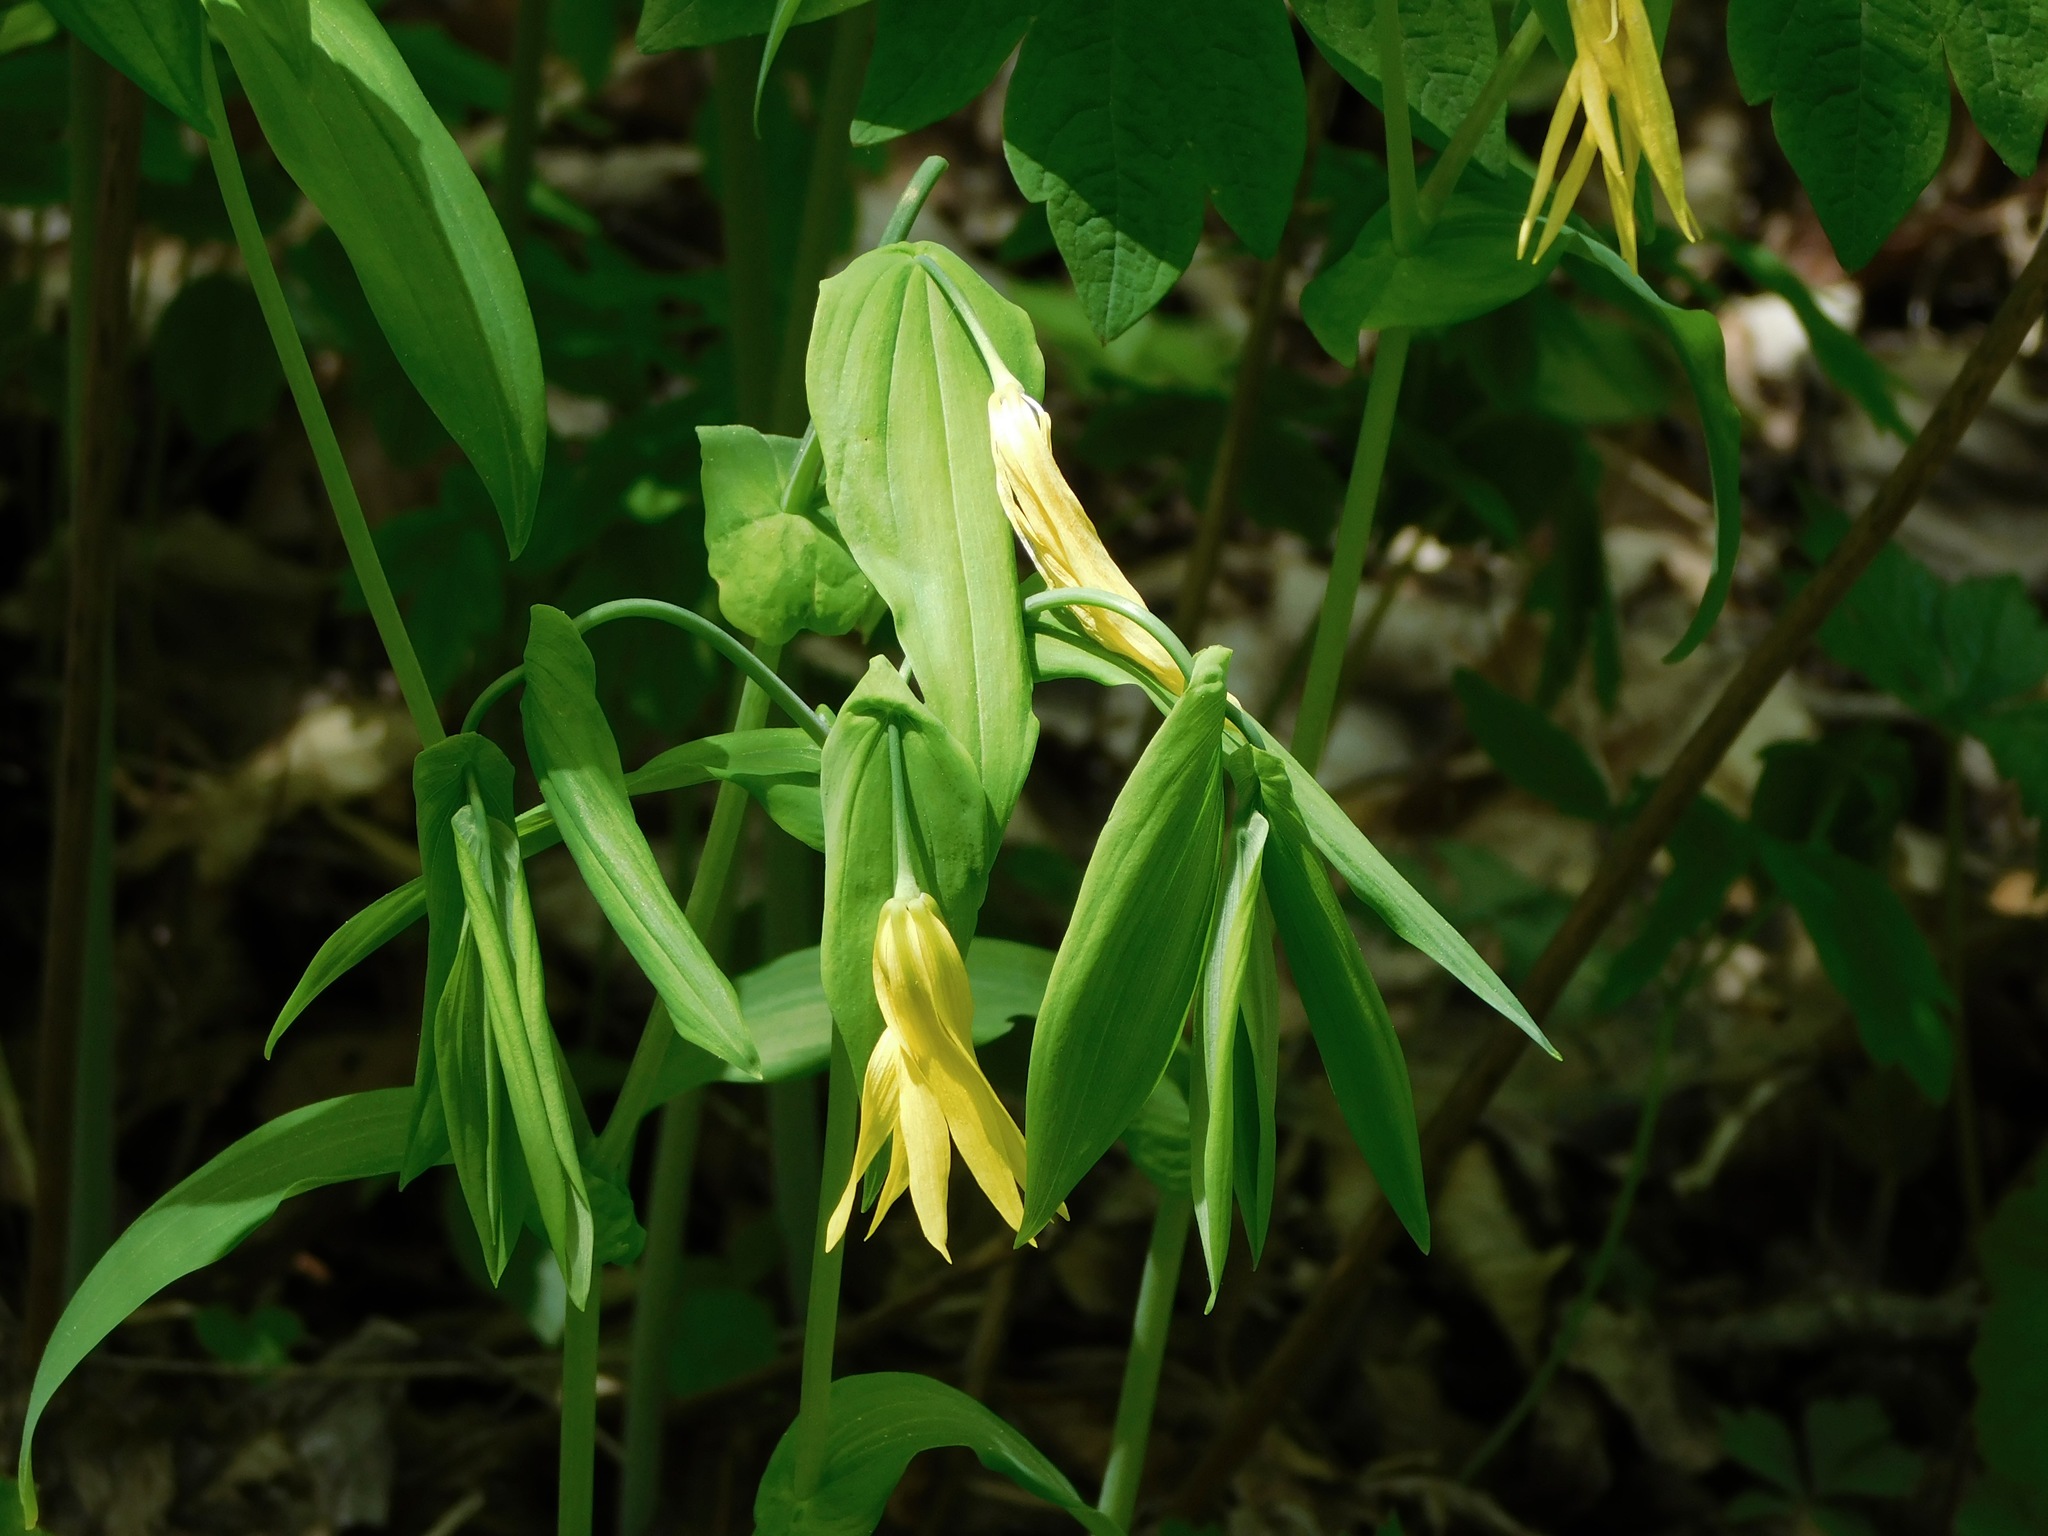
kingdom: Plantae
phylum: Tracheophyta
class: Liliopsida
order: Liliales
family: Colchicaceae
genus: Uvularia
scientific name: Uvularia grandiflora
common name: Bellwort
